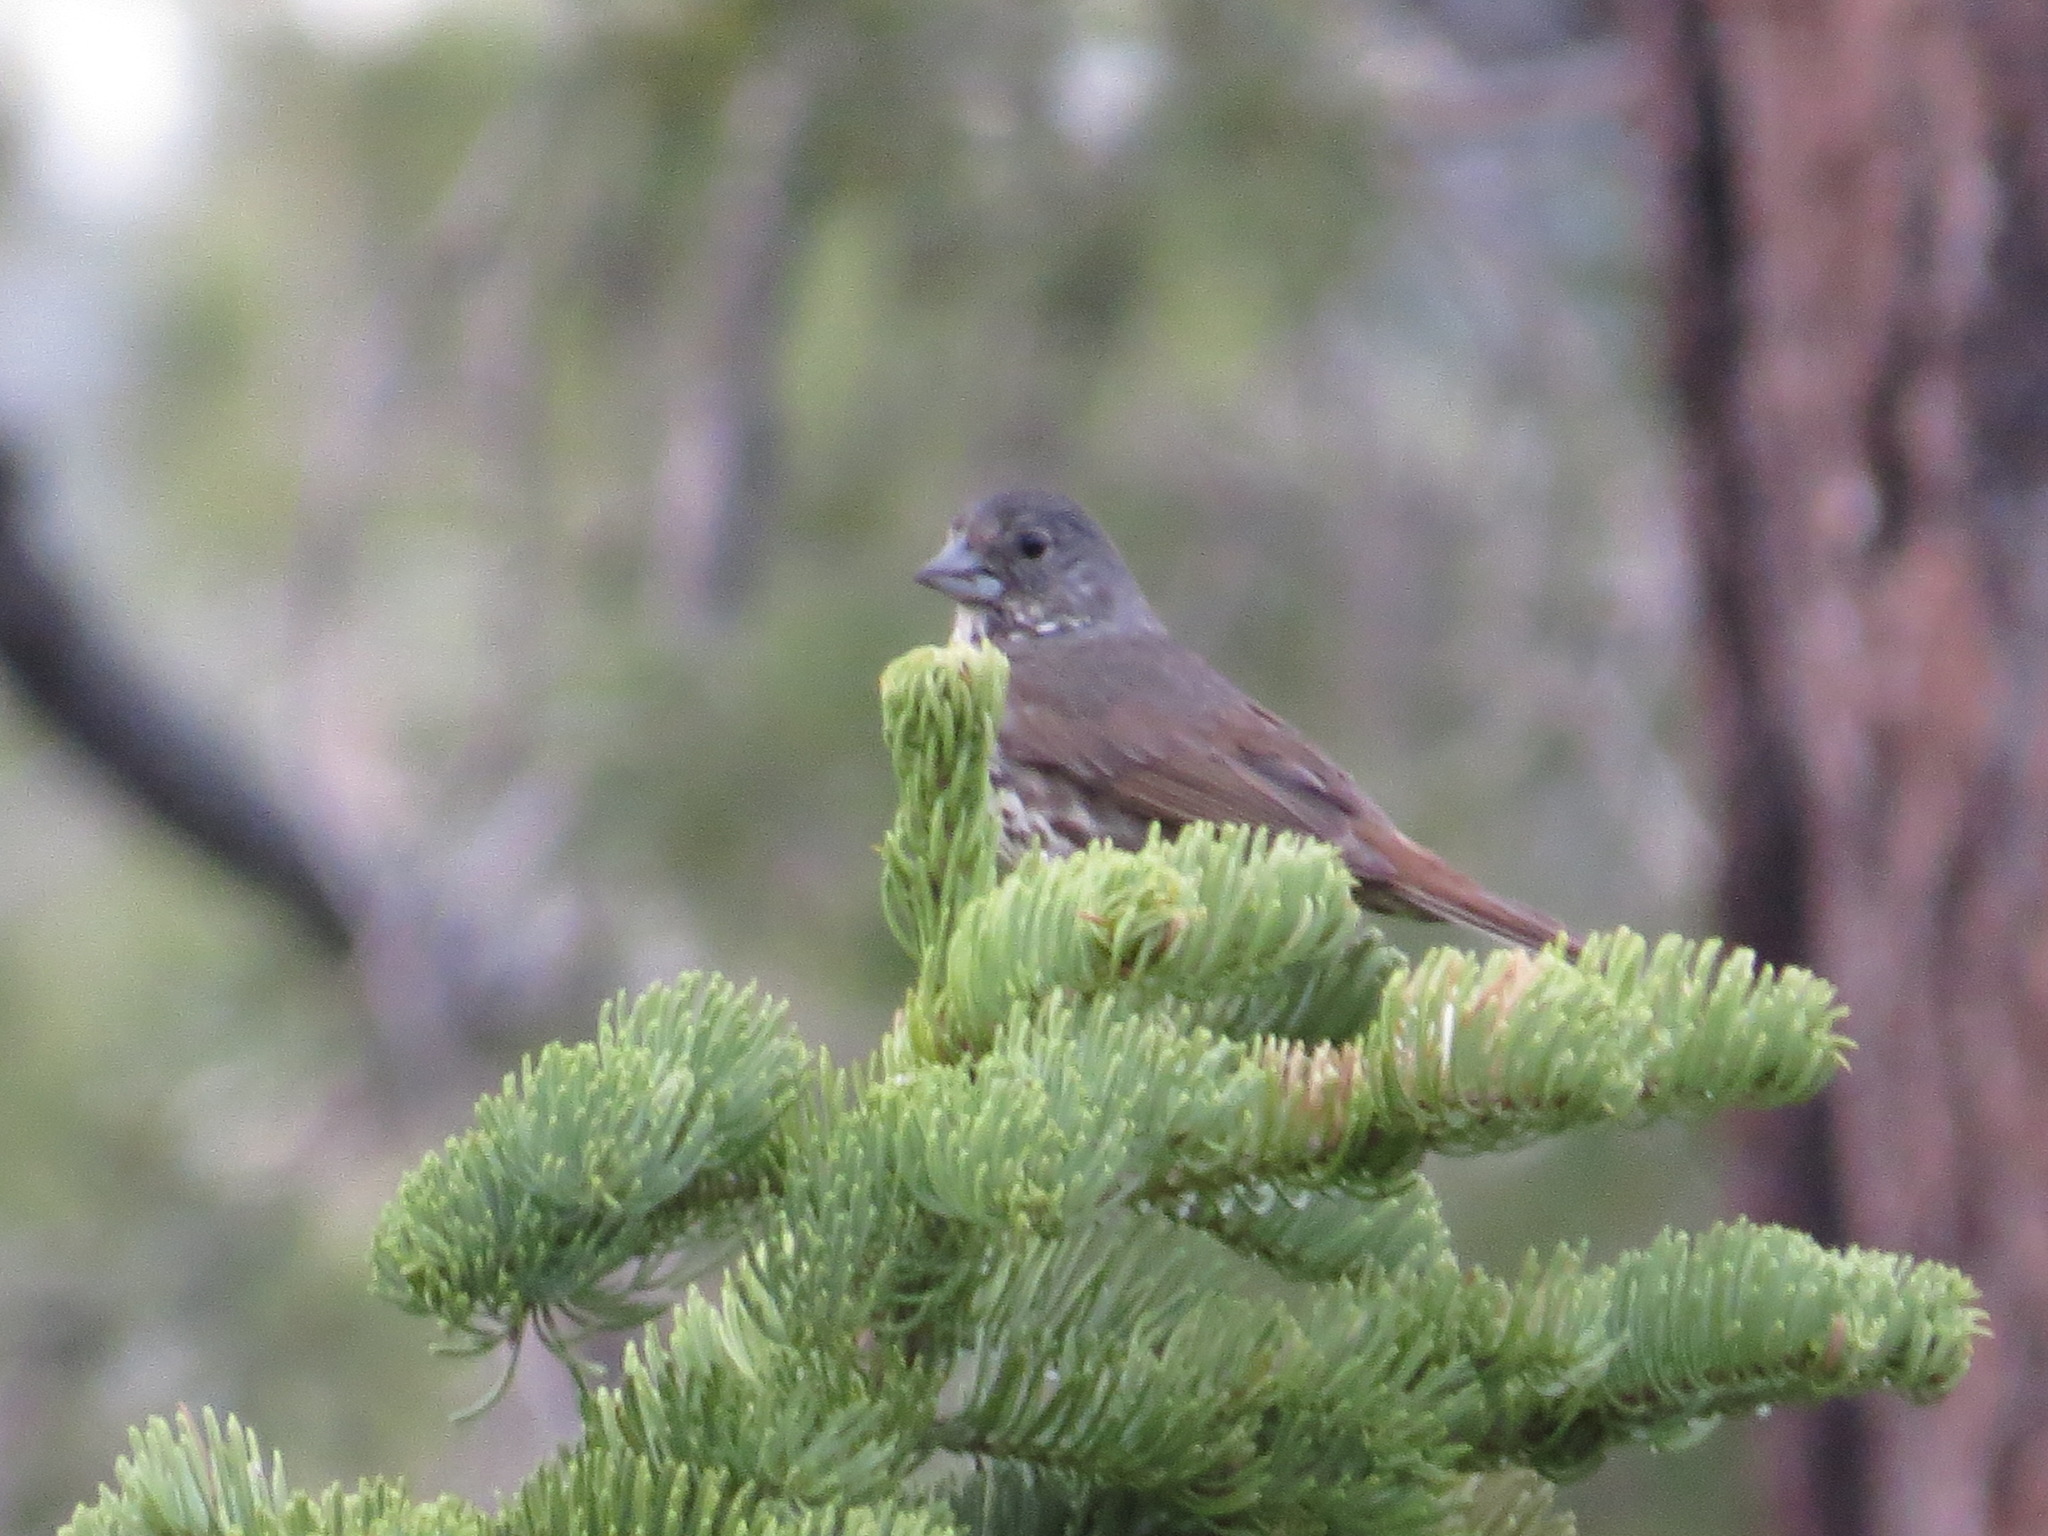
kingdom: Animalia
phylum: Chordata
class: Aves
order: Passeriformes
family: Passerellidae
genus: Passerella
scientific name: Passerella megarhyncha
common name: Thick-billed fox sparrow
